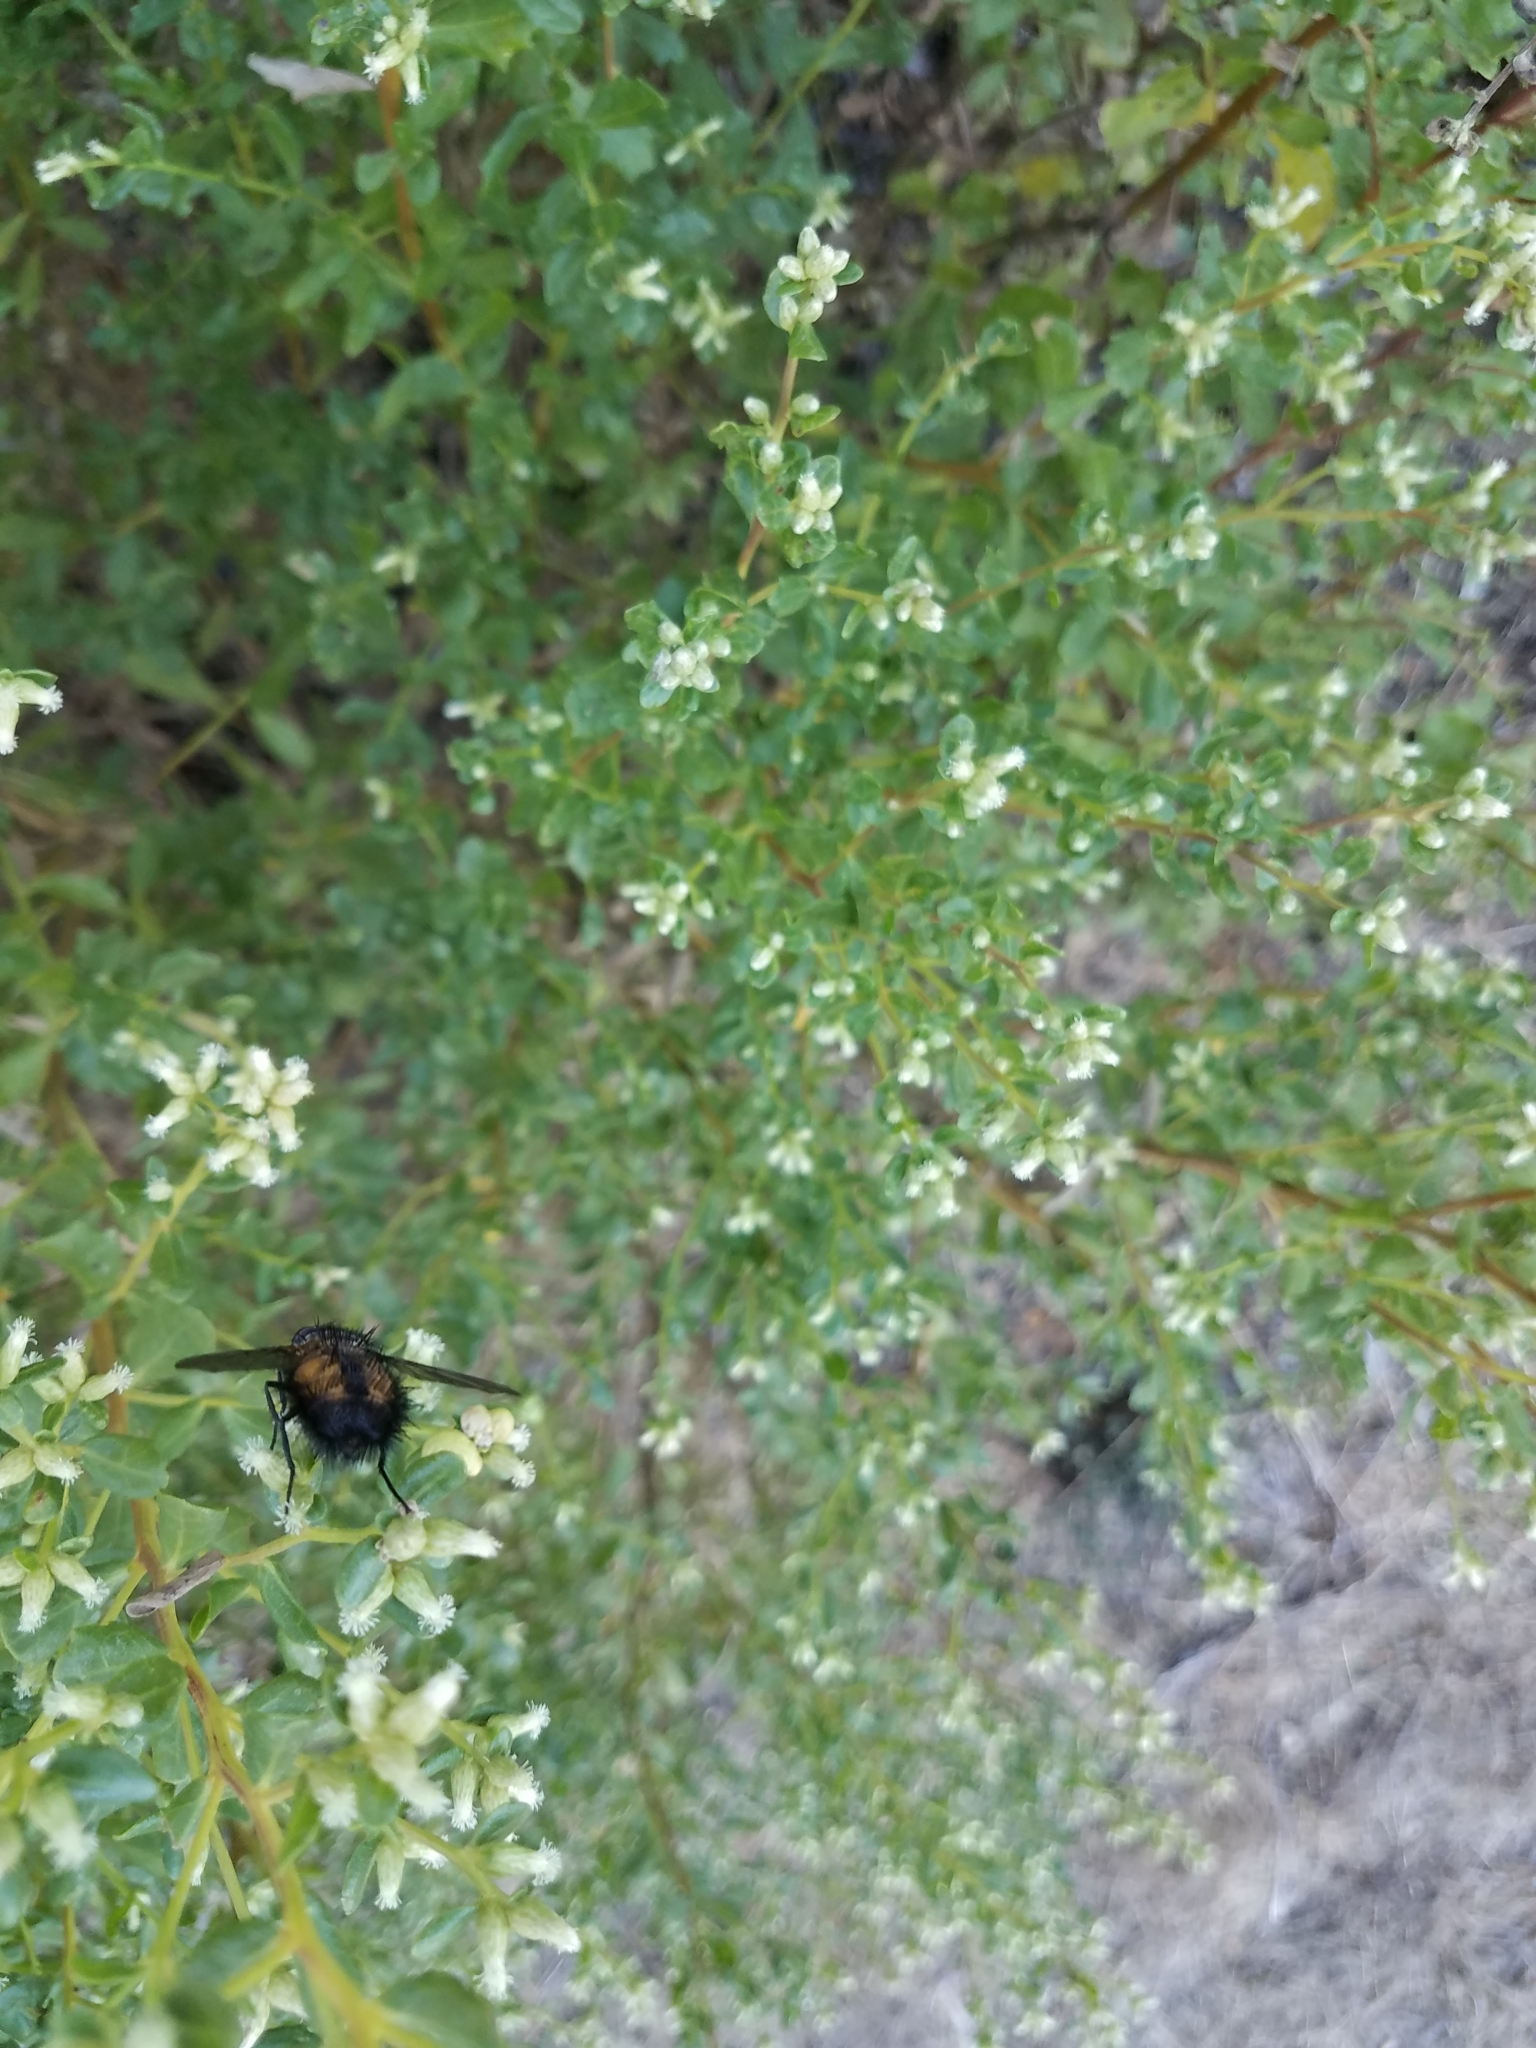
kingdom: Animalia
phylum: Arthropoda
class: Insecta
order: Diptera
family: Tachinidae
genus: Paradejeania
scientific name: Paradejeania rutilioides
